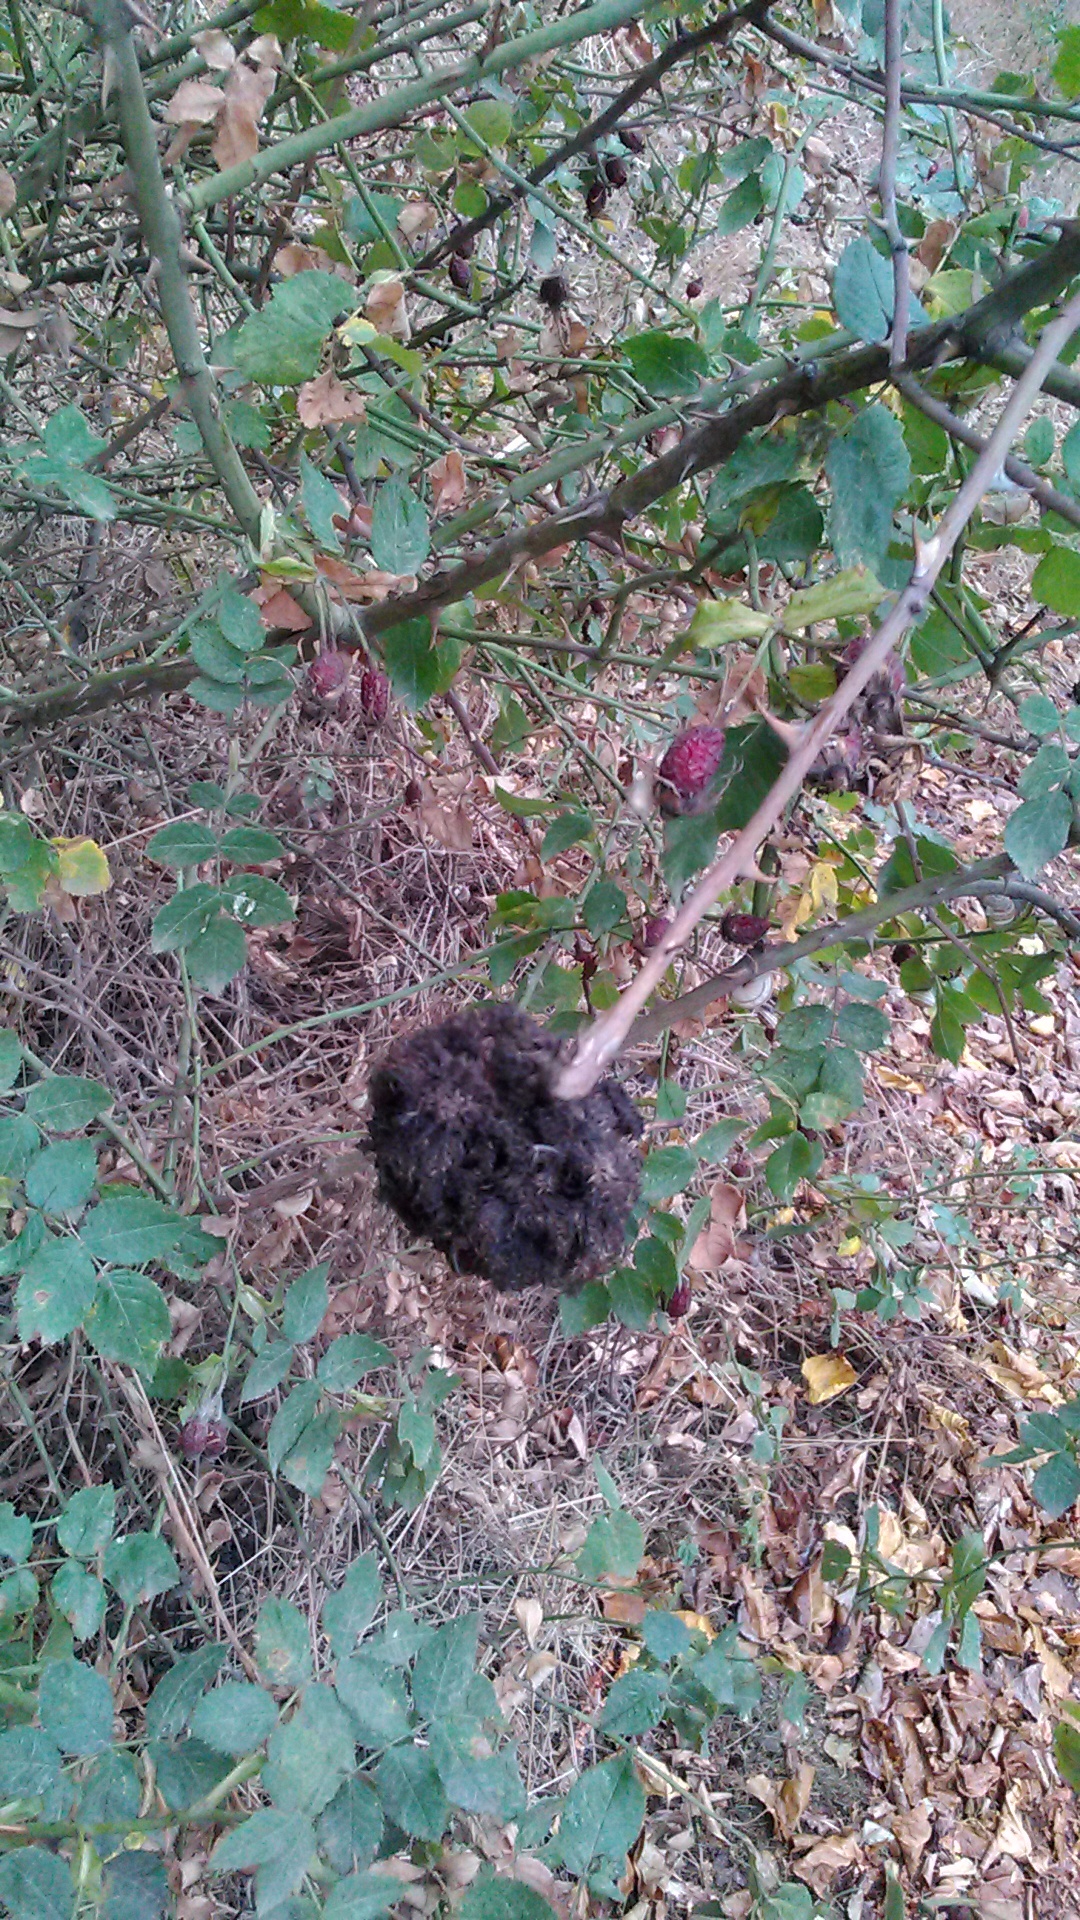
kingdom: Plantae
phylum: Tracheophyta
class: Magnoliopsida
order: Rosales
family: Rosaceae
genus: Rosa
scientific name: Rosa
